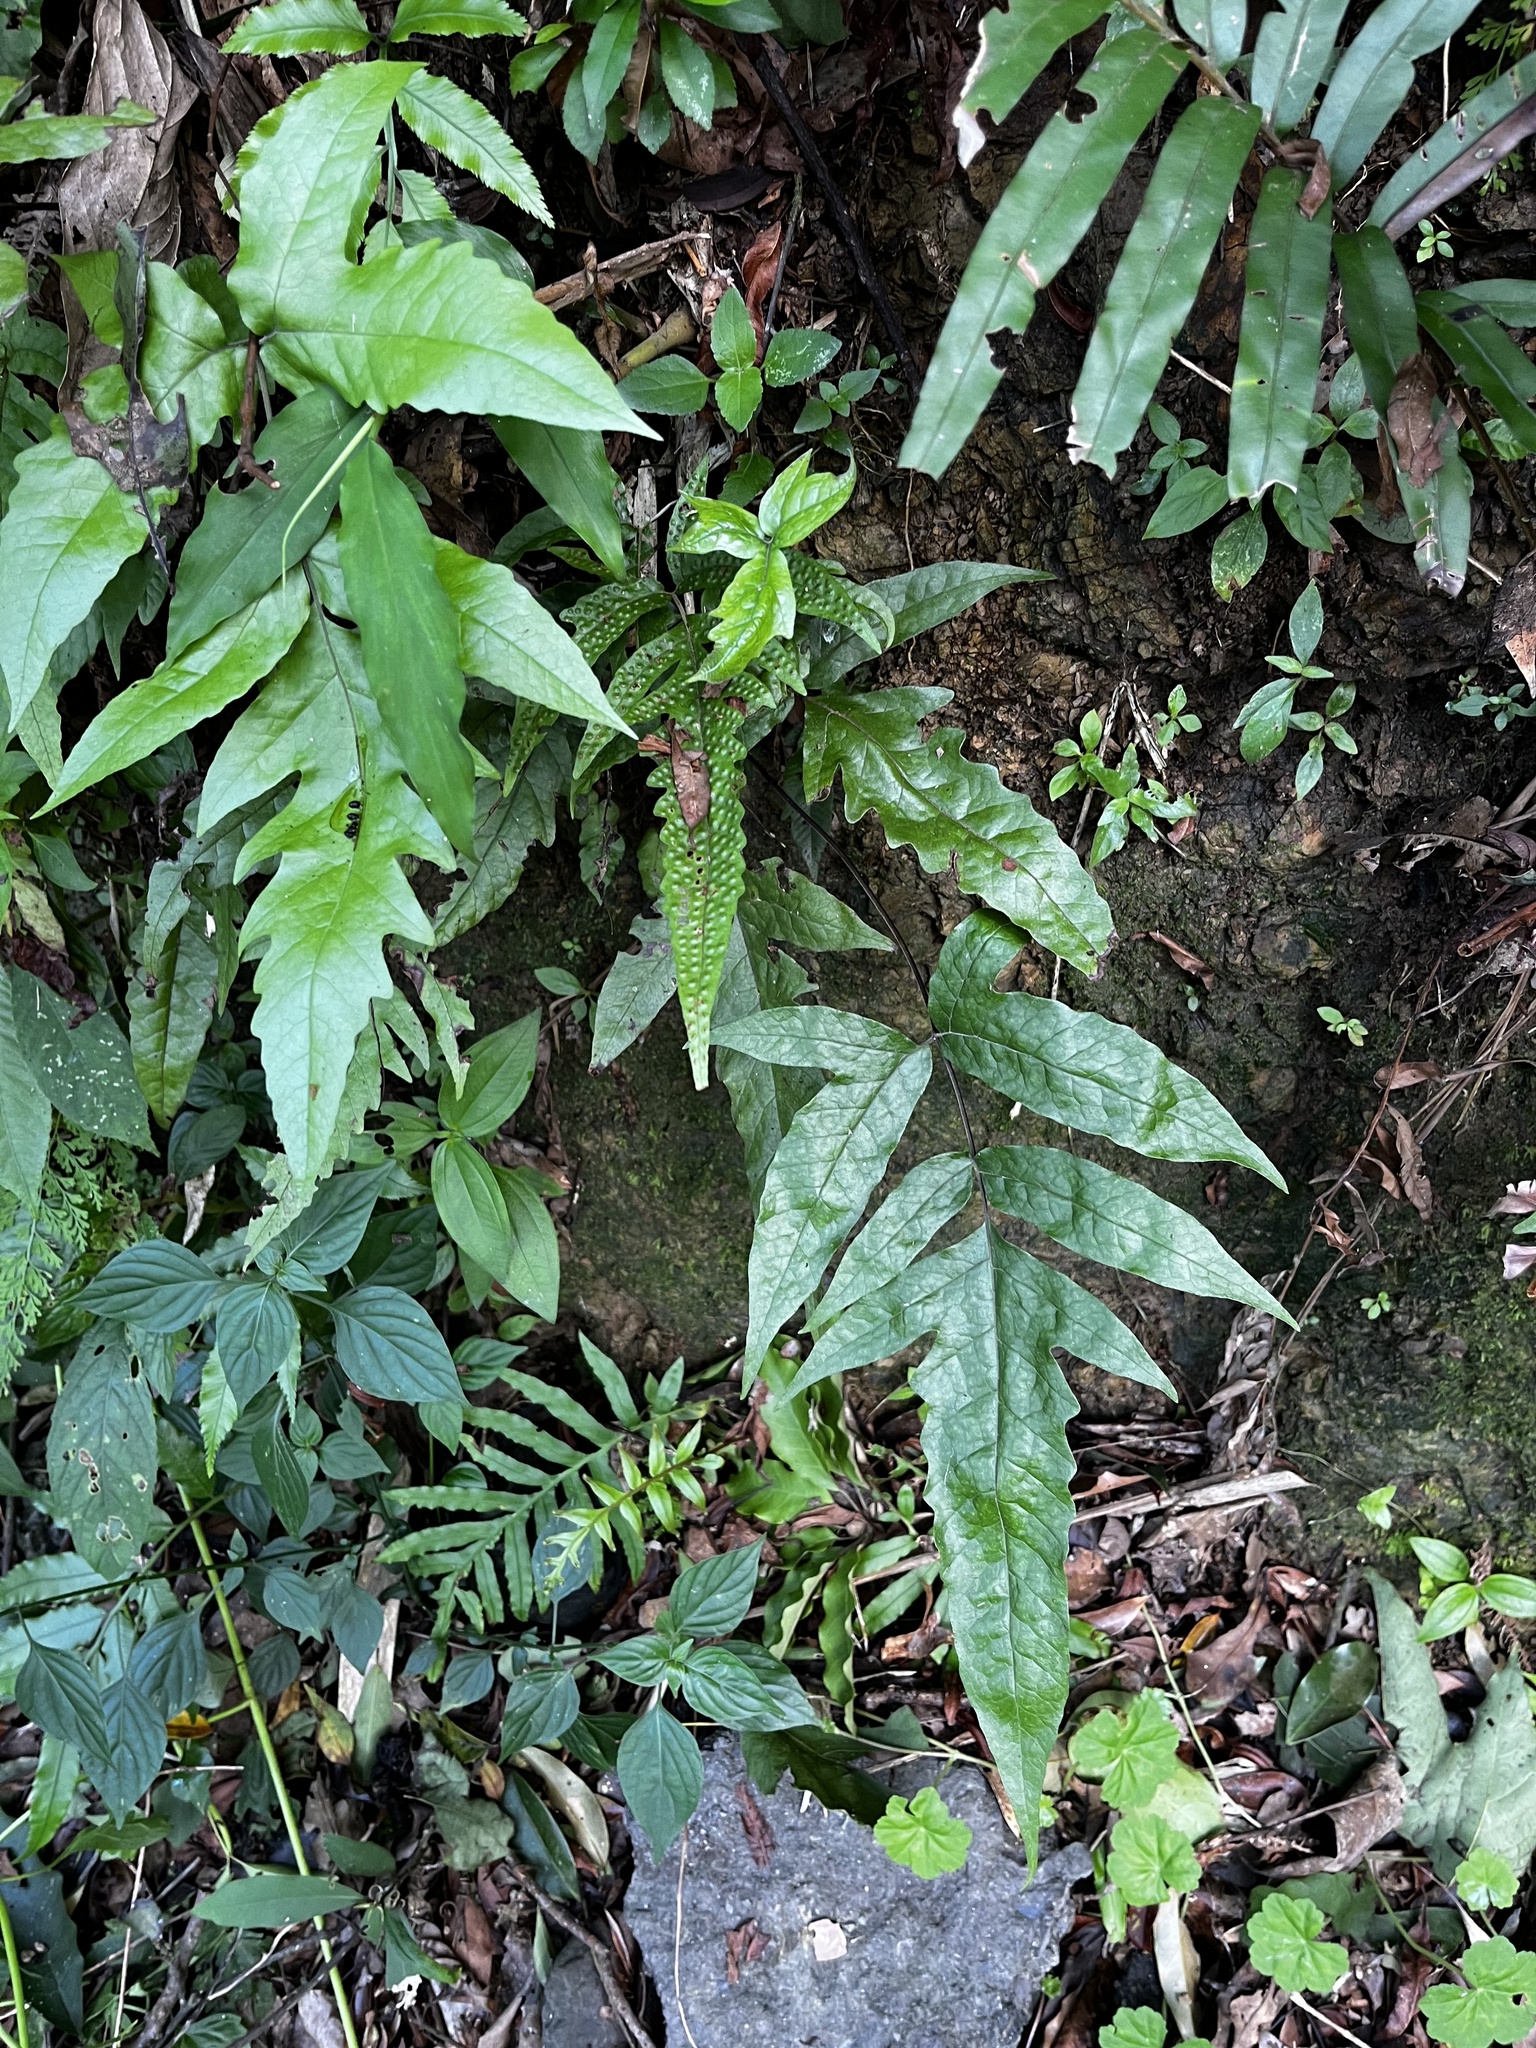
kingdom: Plantae
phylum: Tracheophyta
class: Polypodiopsida
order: Polypodiales
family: Tectariaceae
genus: Tectaria
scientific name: Tectaria phaeocaulis
